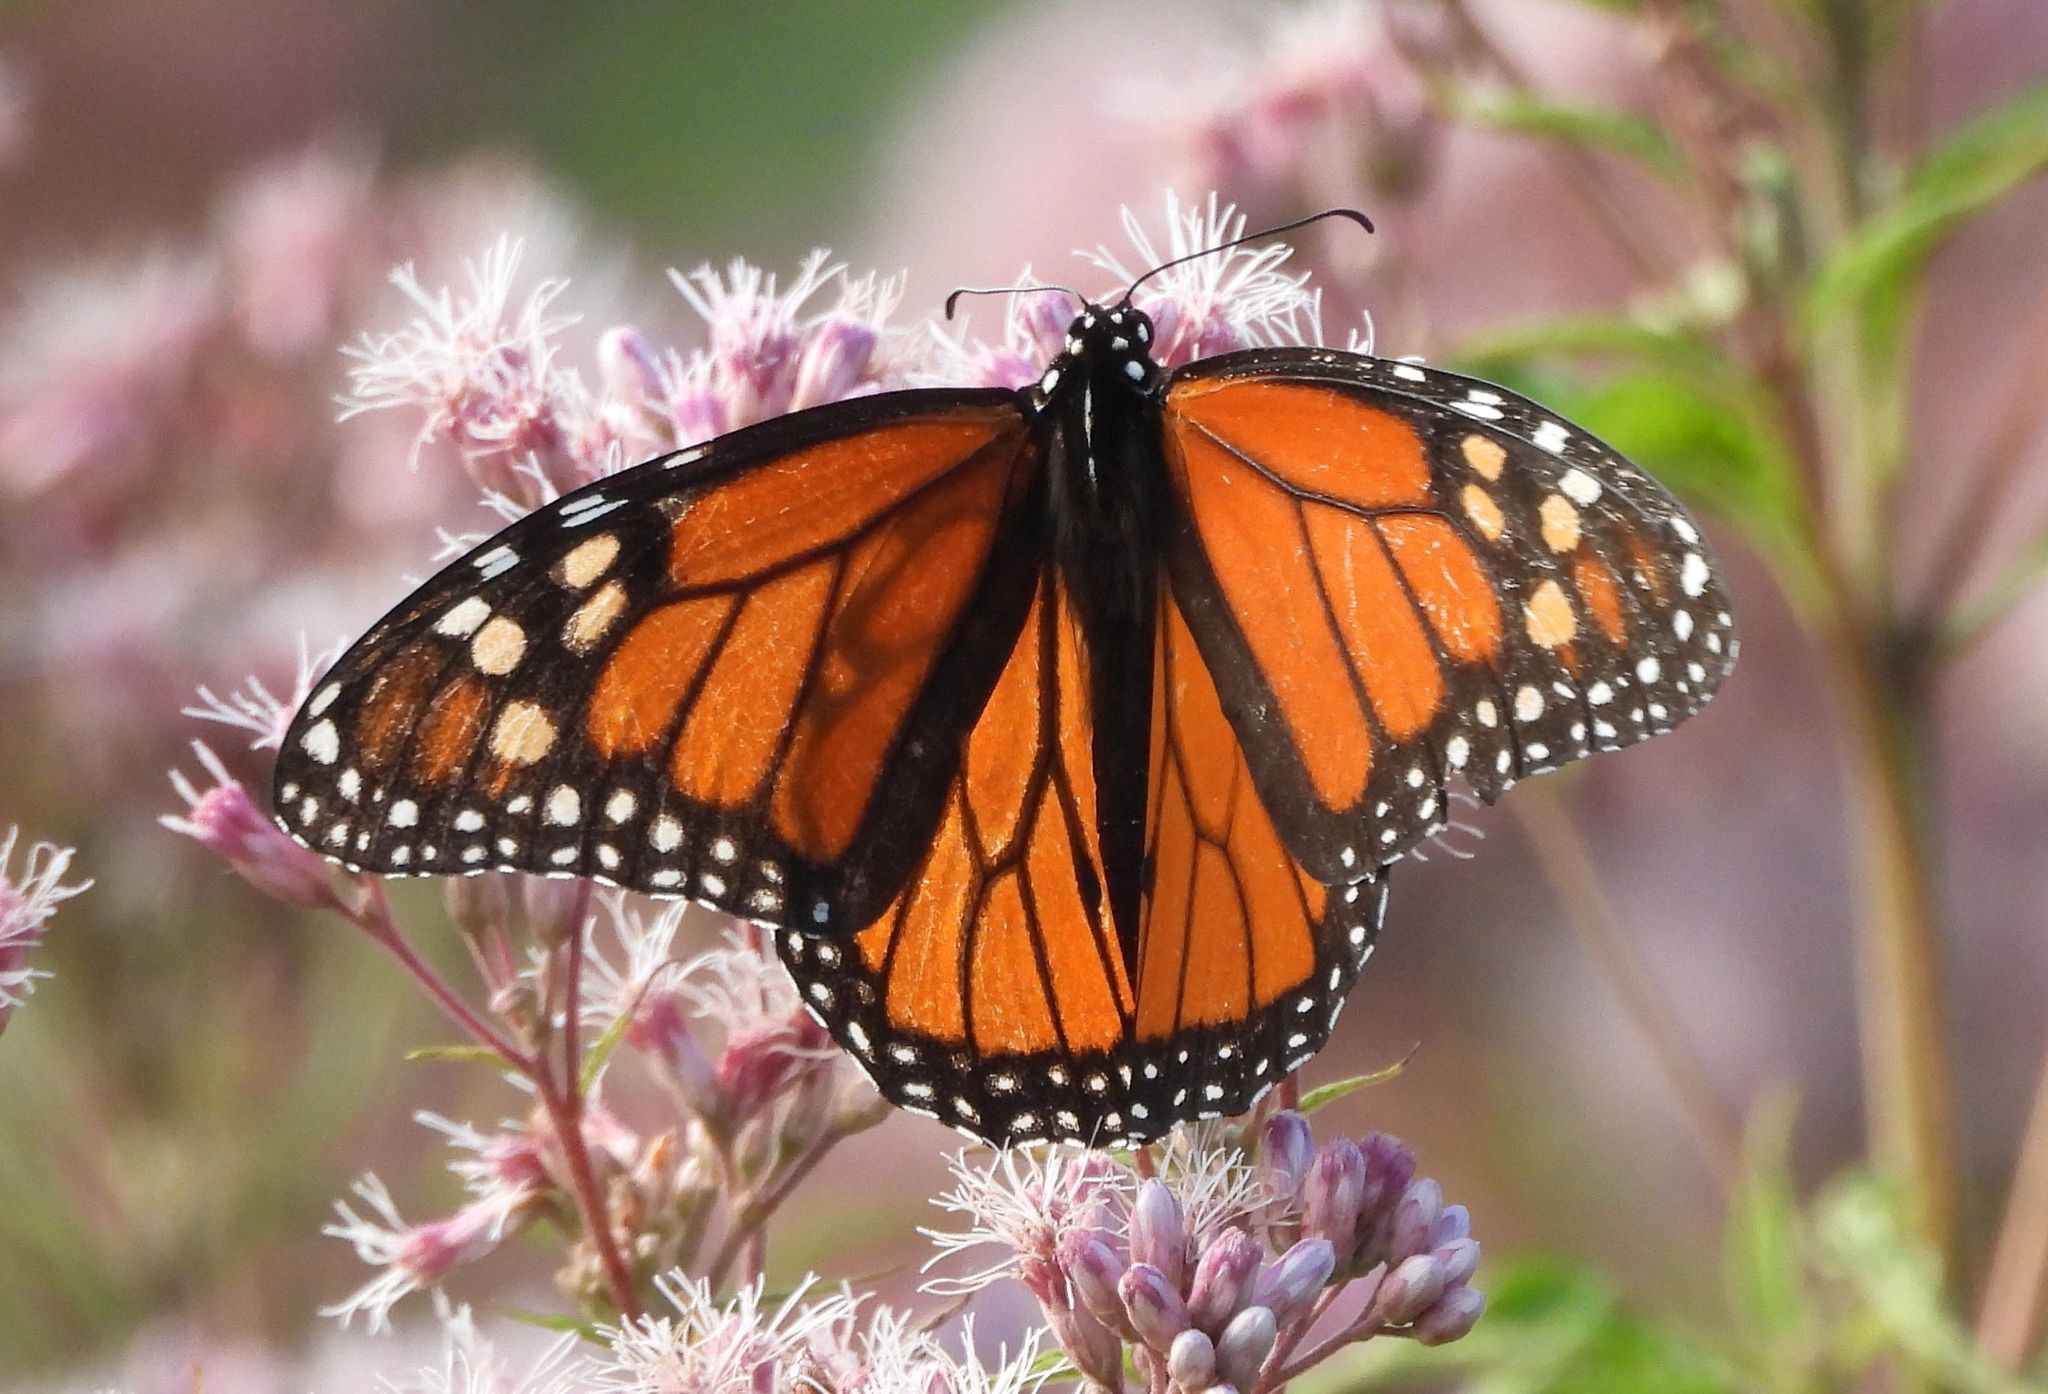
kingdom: Animalia
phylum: Arthropoda
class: Insecta
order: Lepidoptera
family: Nymphalidae
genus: Danaus
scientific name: Danaus plexippus
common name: Monarch
